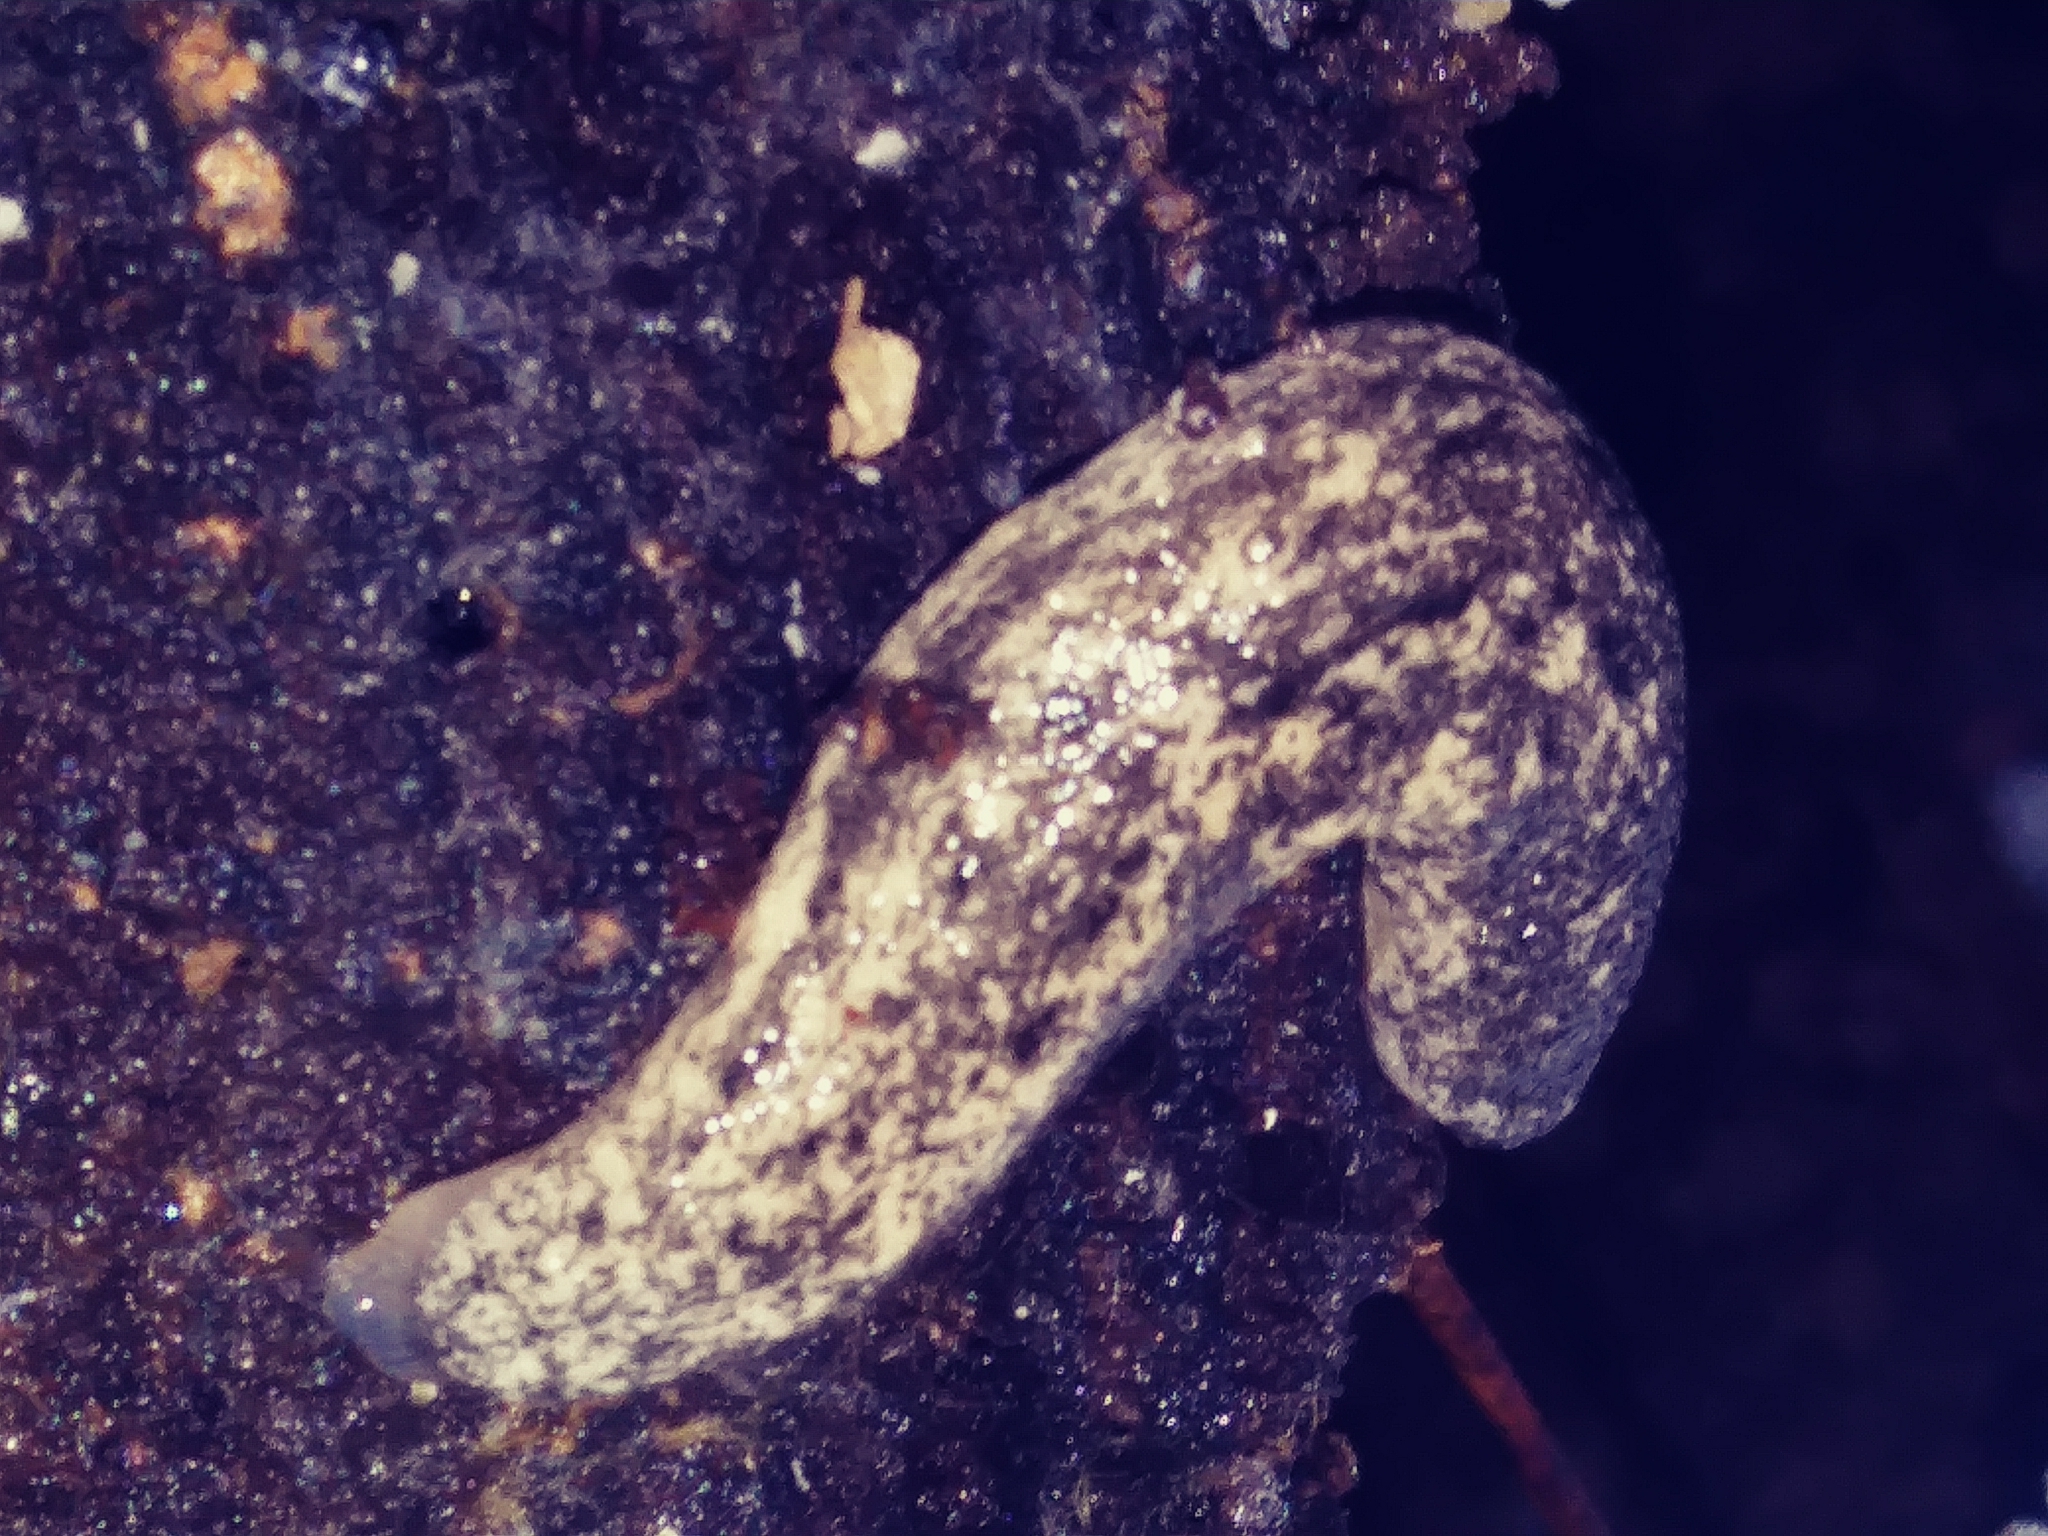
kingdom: Animalia
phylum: Mollusca
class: Gastropoda
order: Stylommatophora
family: Philomycidae
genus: Philomycus
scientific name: Philomycus carolinianus
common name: Carolina mantleslug
